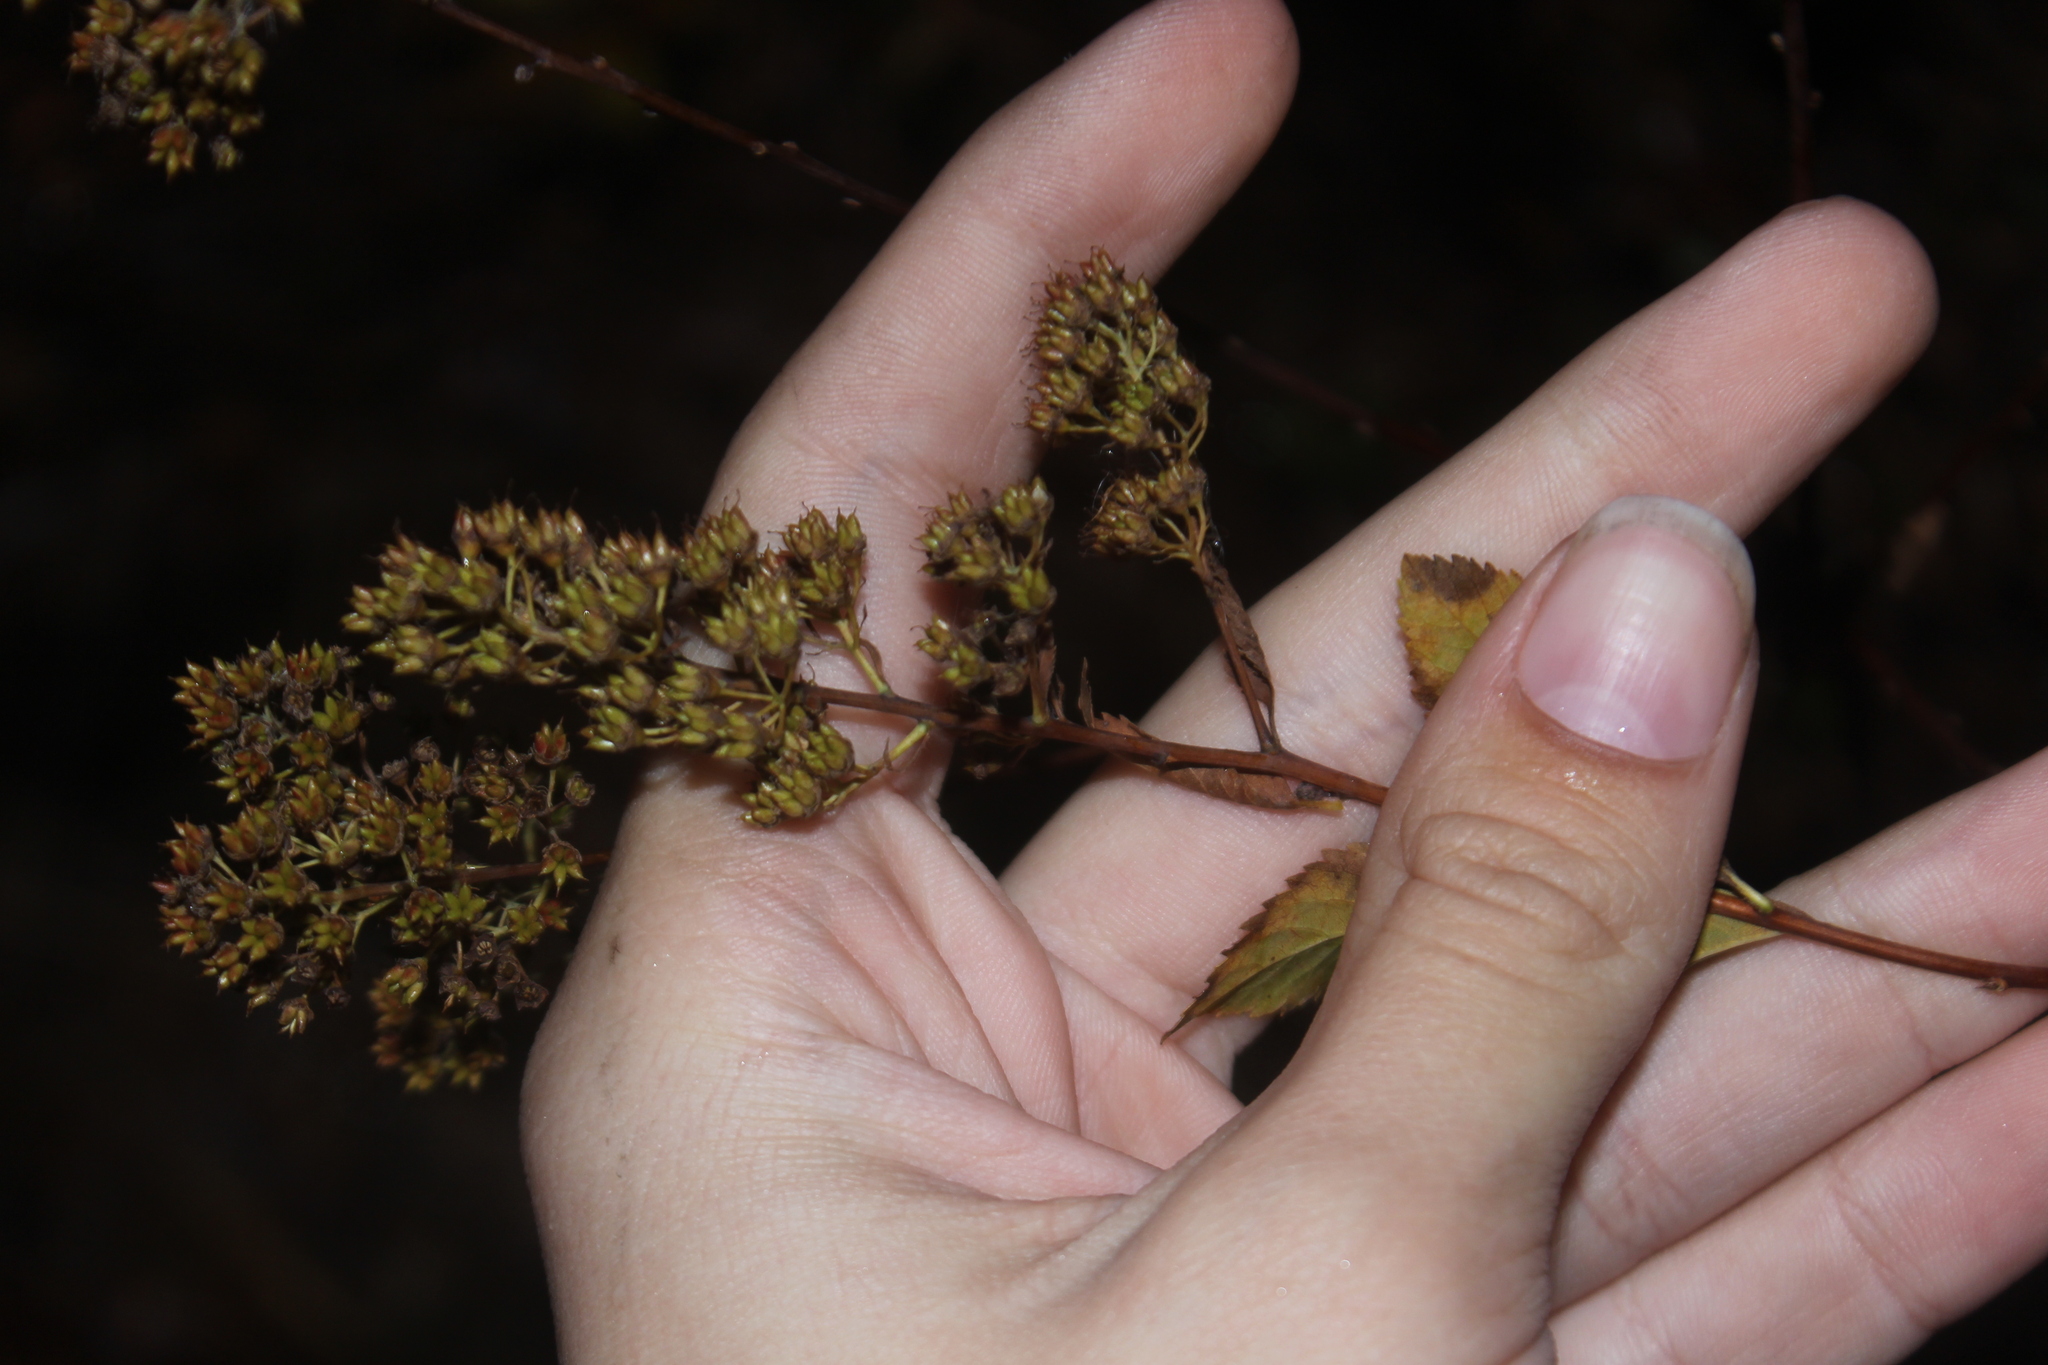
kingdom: Plantae
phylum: Tracheophyta
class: Magnoliopsida
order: Rosales
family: Rosaceae
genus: Spiraea
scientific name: Spiraea alba
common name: Pale bridewort
